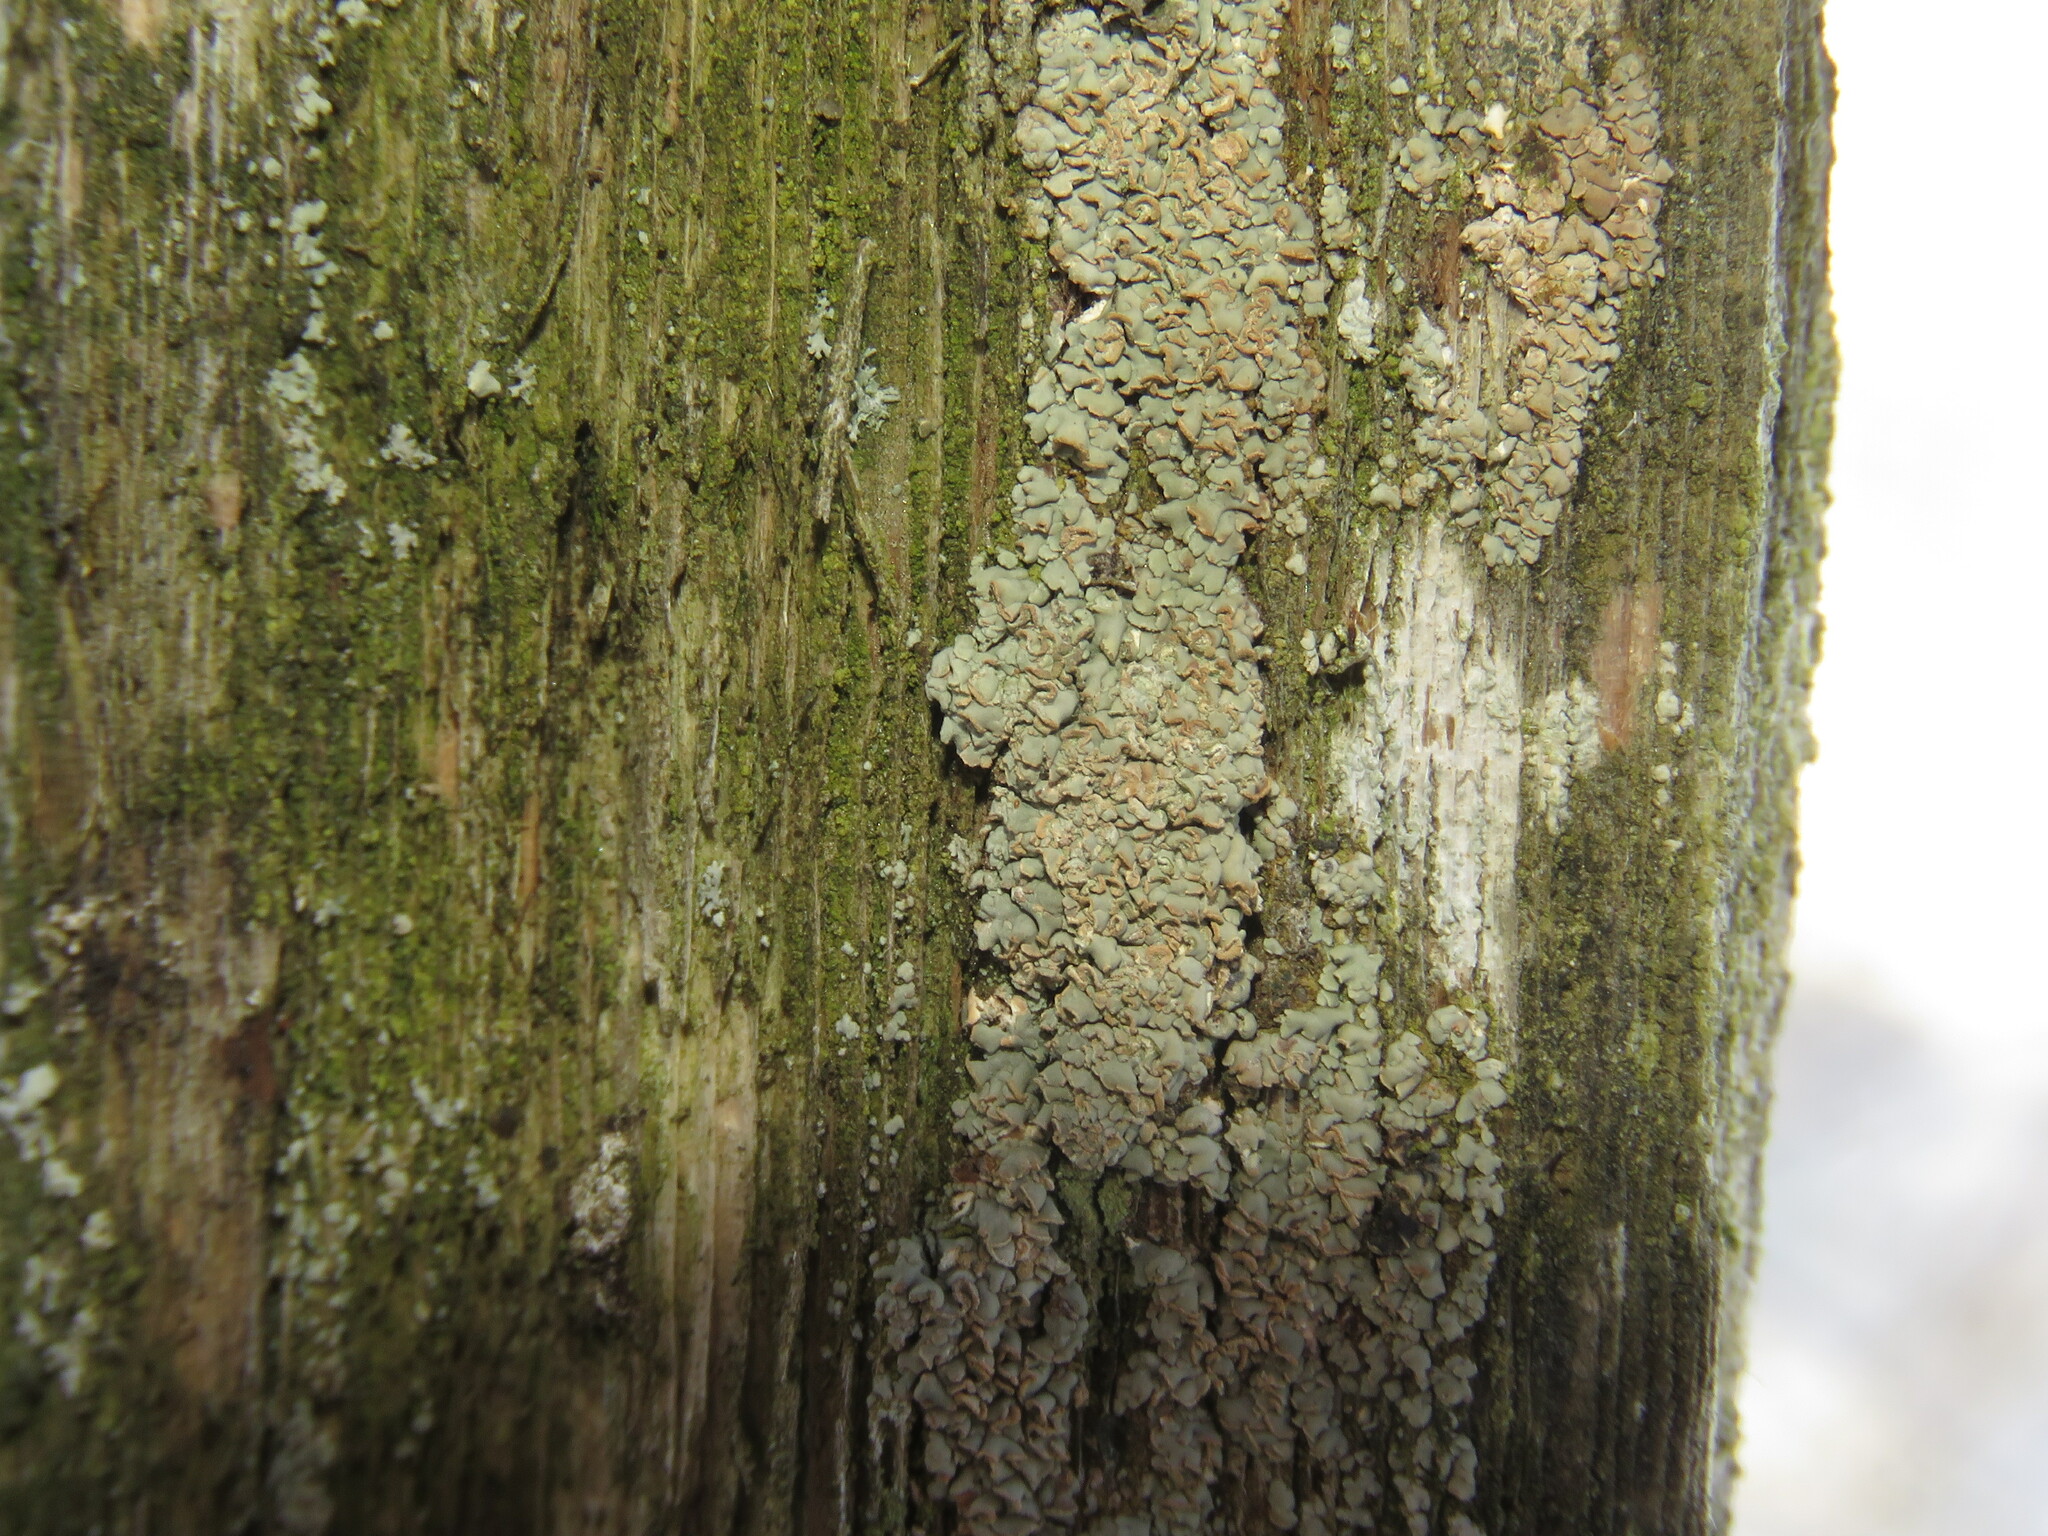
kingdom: Fungi
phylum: Ascomycota
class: Lecanoromycetes
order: Umbilicariales
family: Ophioparmaceae
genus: Hypocenomyce
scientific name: Hypocenomyce scalaris
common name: Common clam lichen
